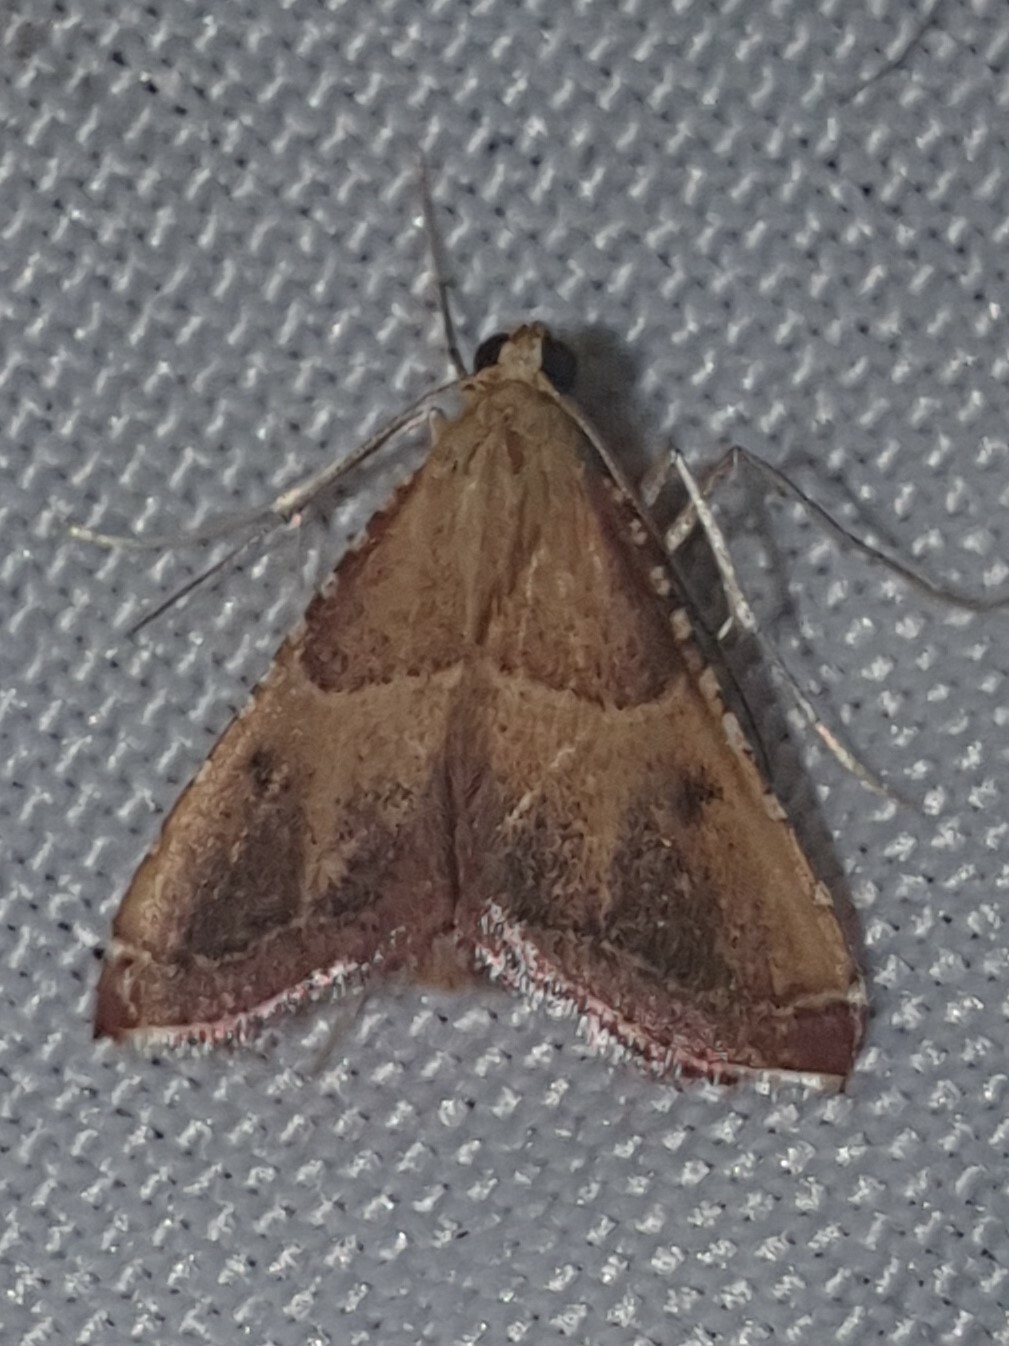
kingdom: Animalia
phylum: Arthropoda
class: Insecta
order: Lepidoptera
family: Pyralidae
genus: Endotricha
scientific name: Endotricha flammealis
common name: Rosy tabby
